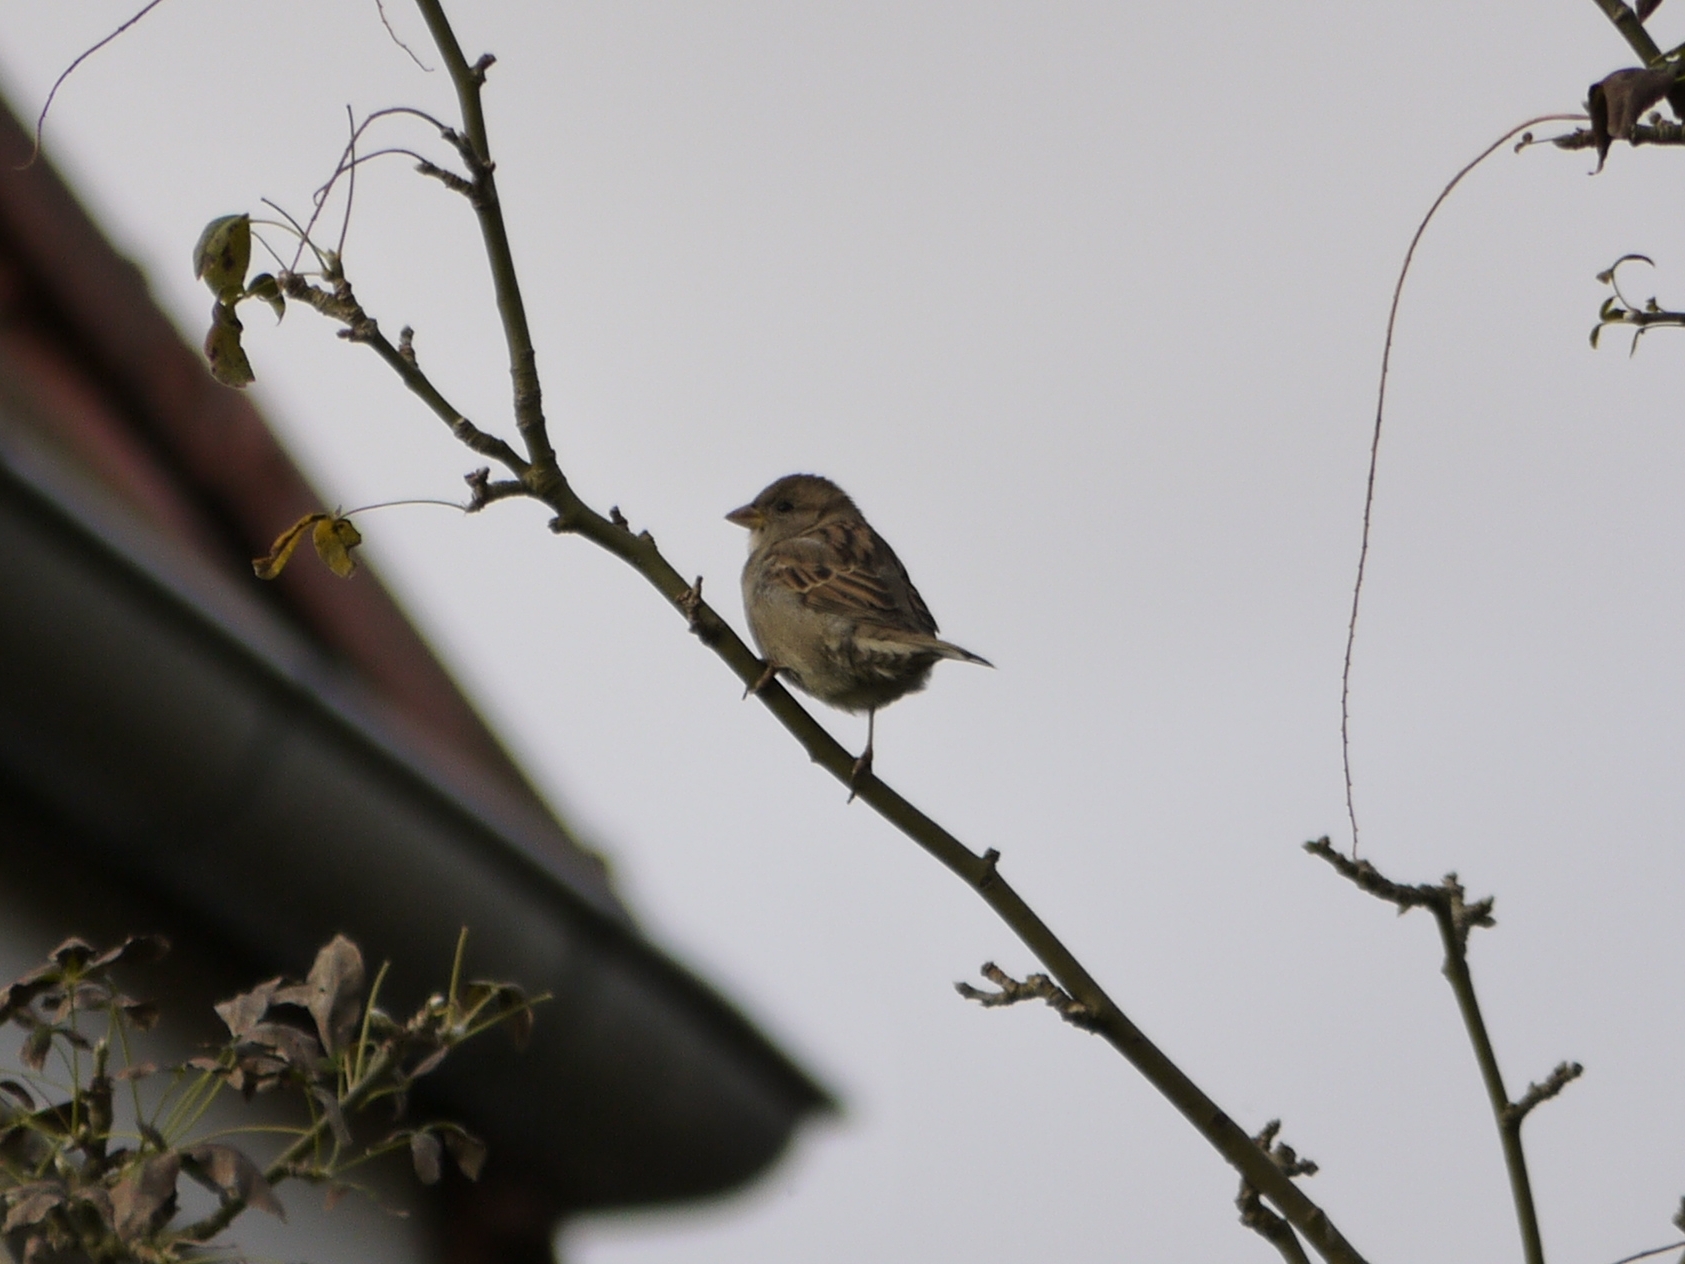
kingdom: Animalia
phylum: Chordata
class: Aves
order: Passeriformes
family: Passeridae
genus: Passer
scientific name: Passer domesticus
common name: House sparrow
